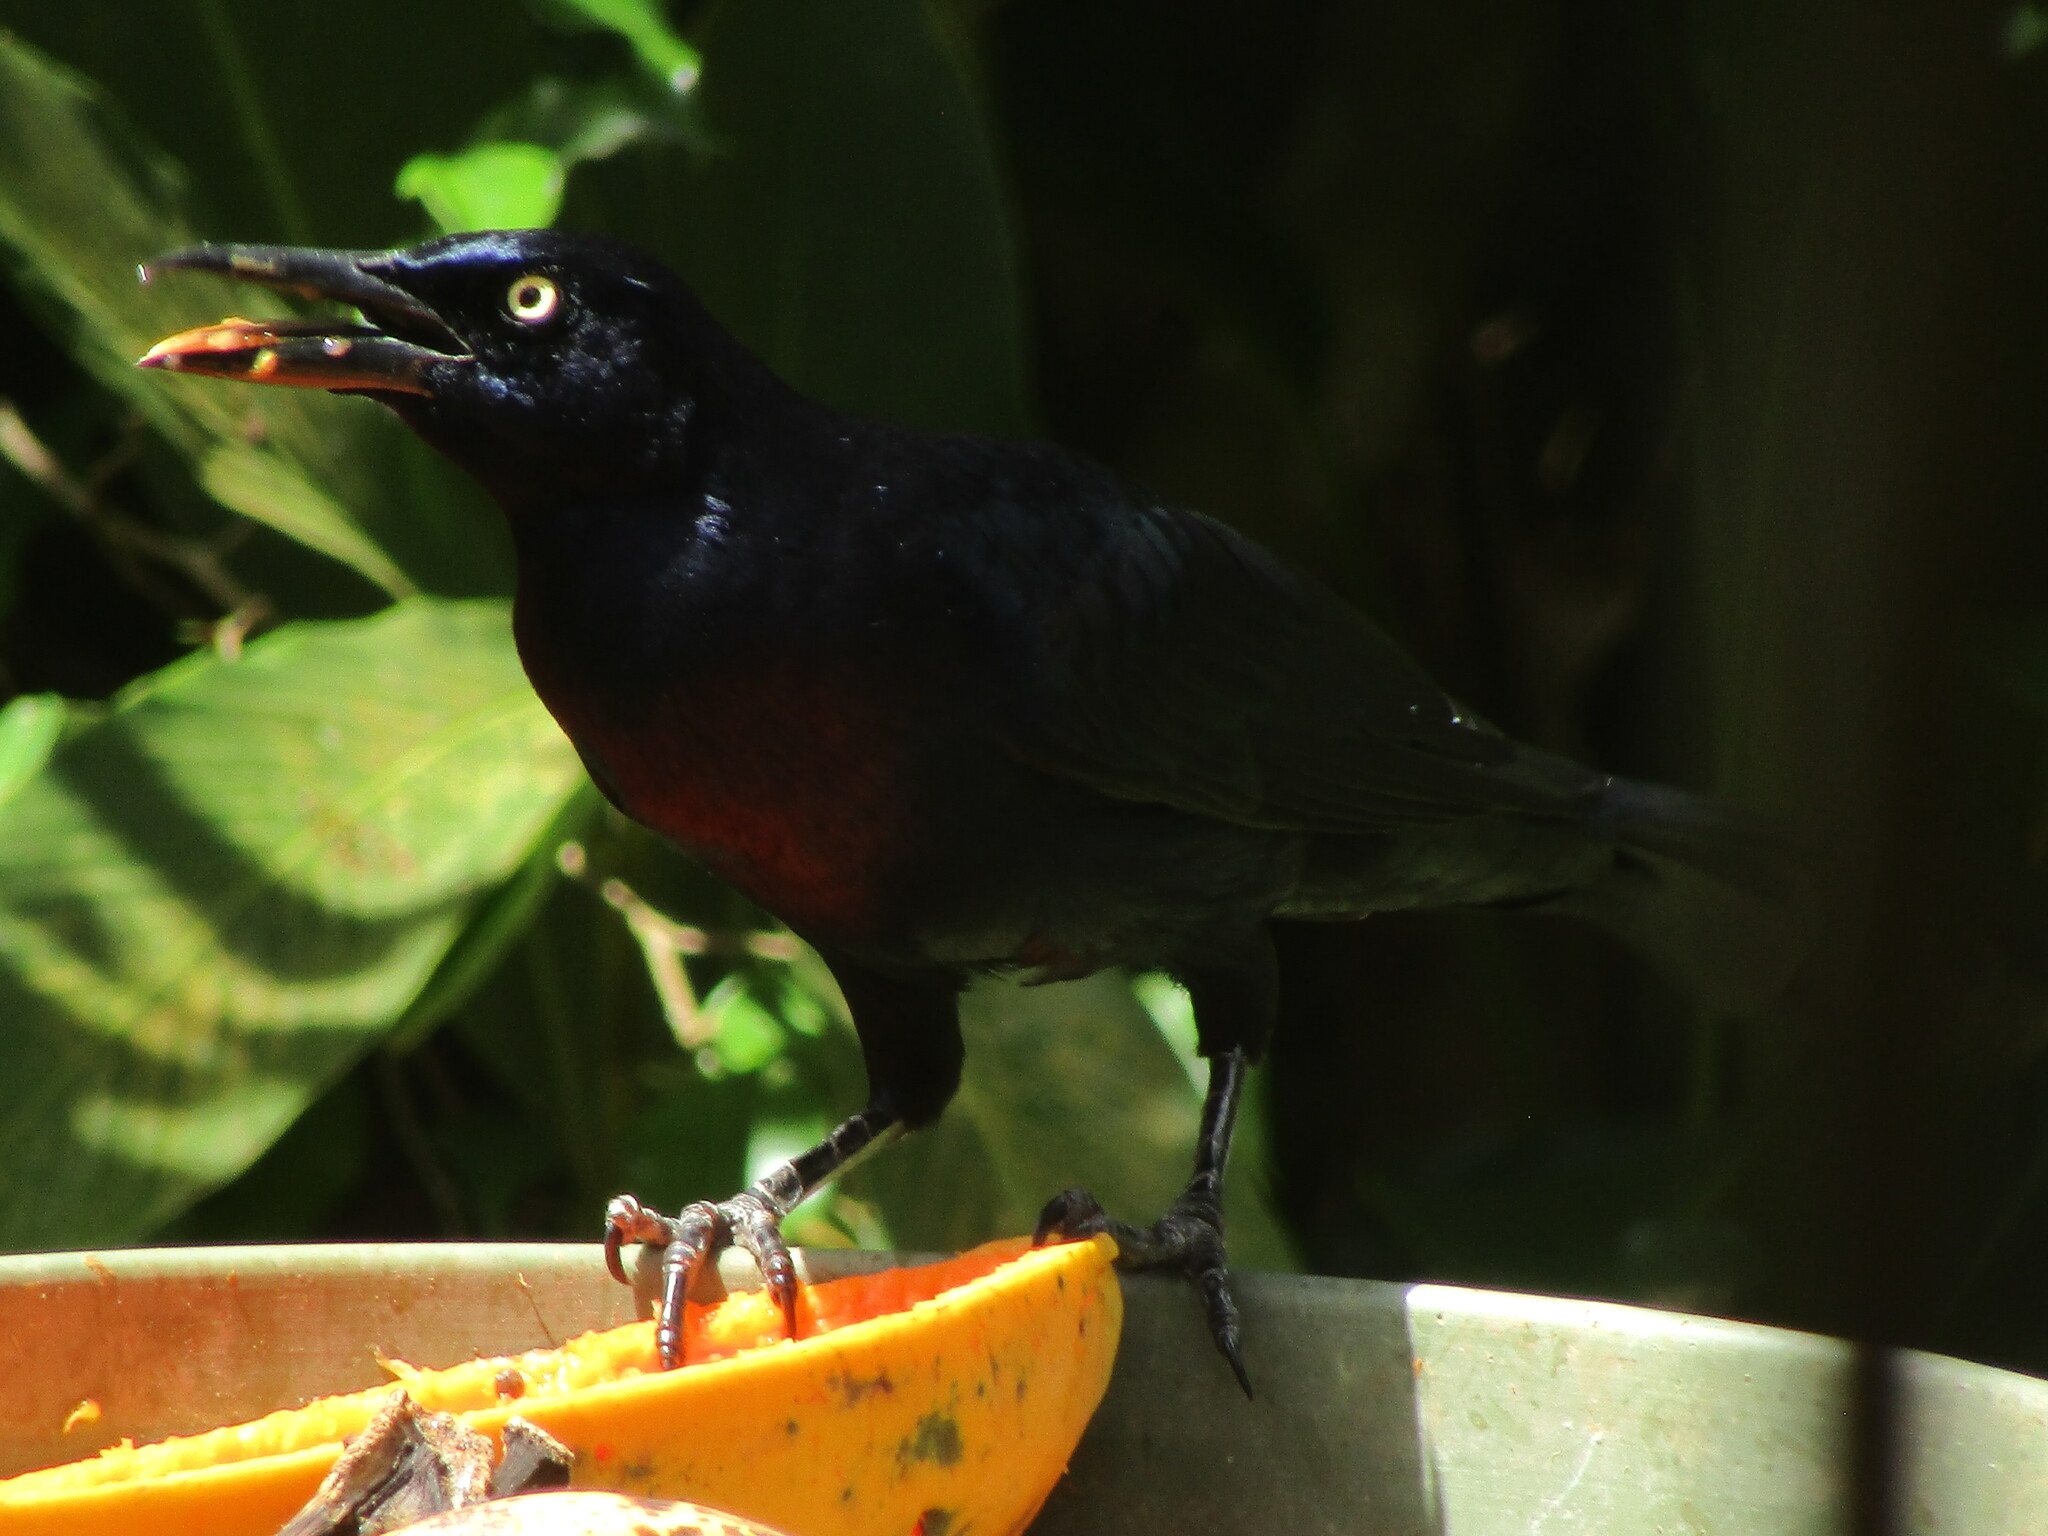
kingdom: Animalia
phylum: Chordata
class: Aves
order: Passeriformes
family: Icteridae
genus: Quiscalus
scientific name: Quiscalus mexicanus
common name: Great-tailed grackle
